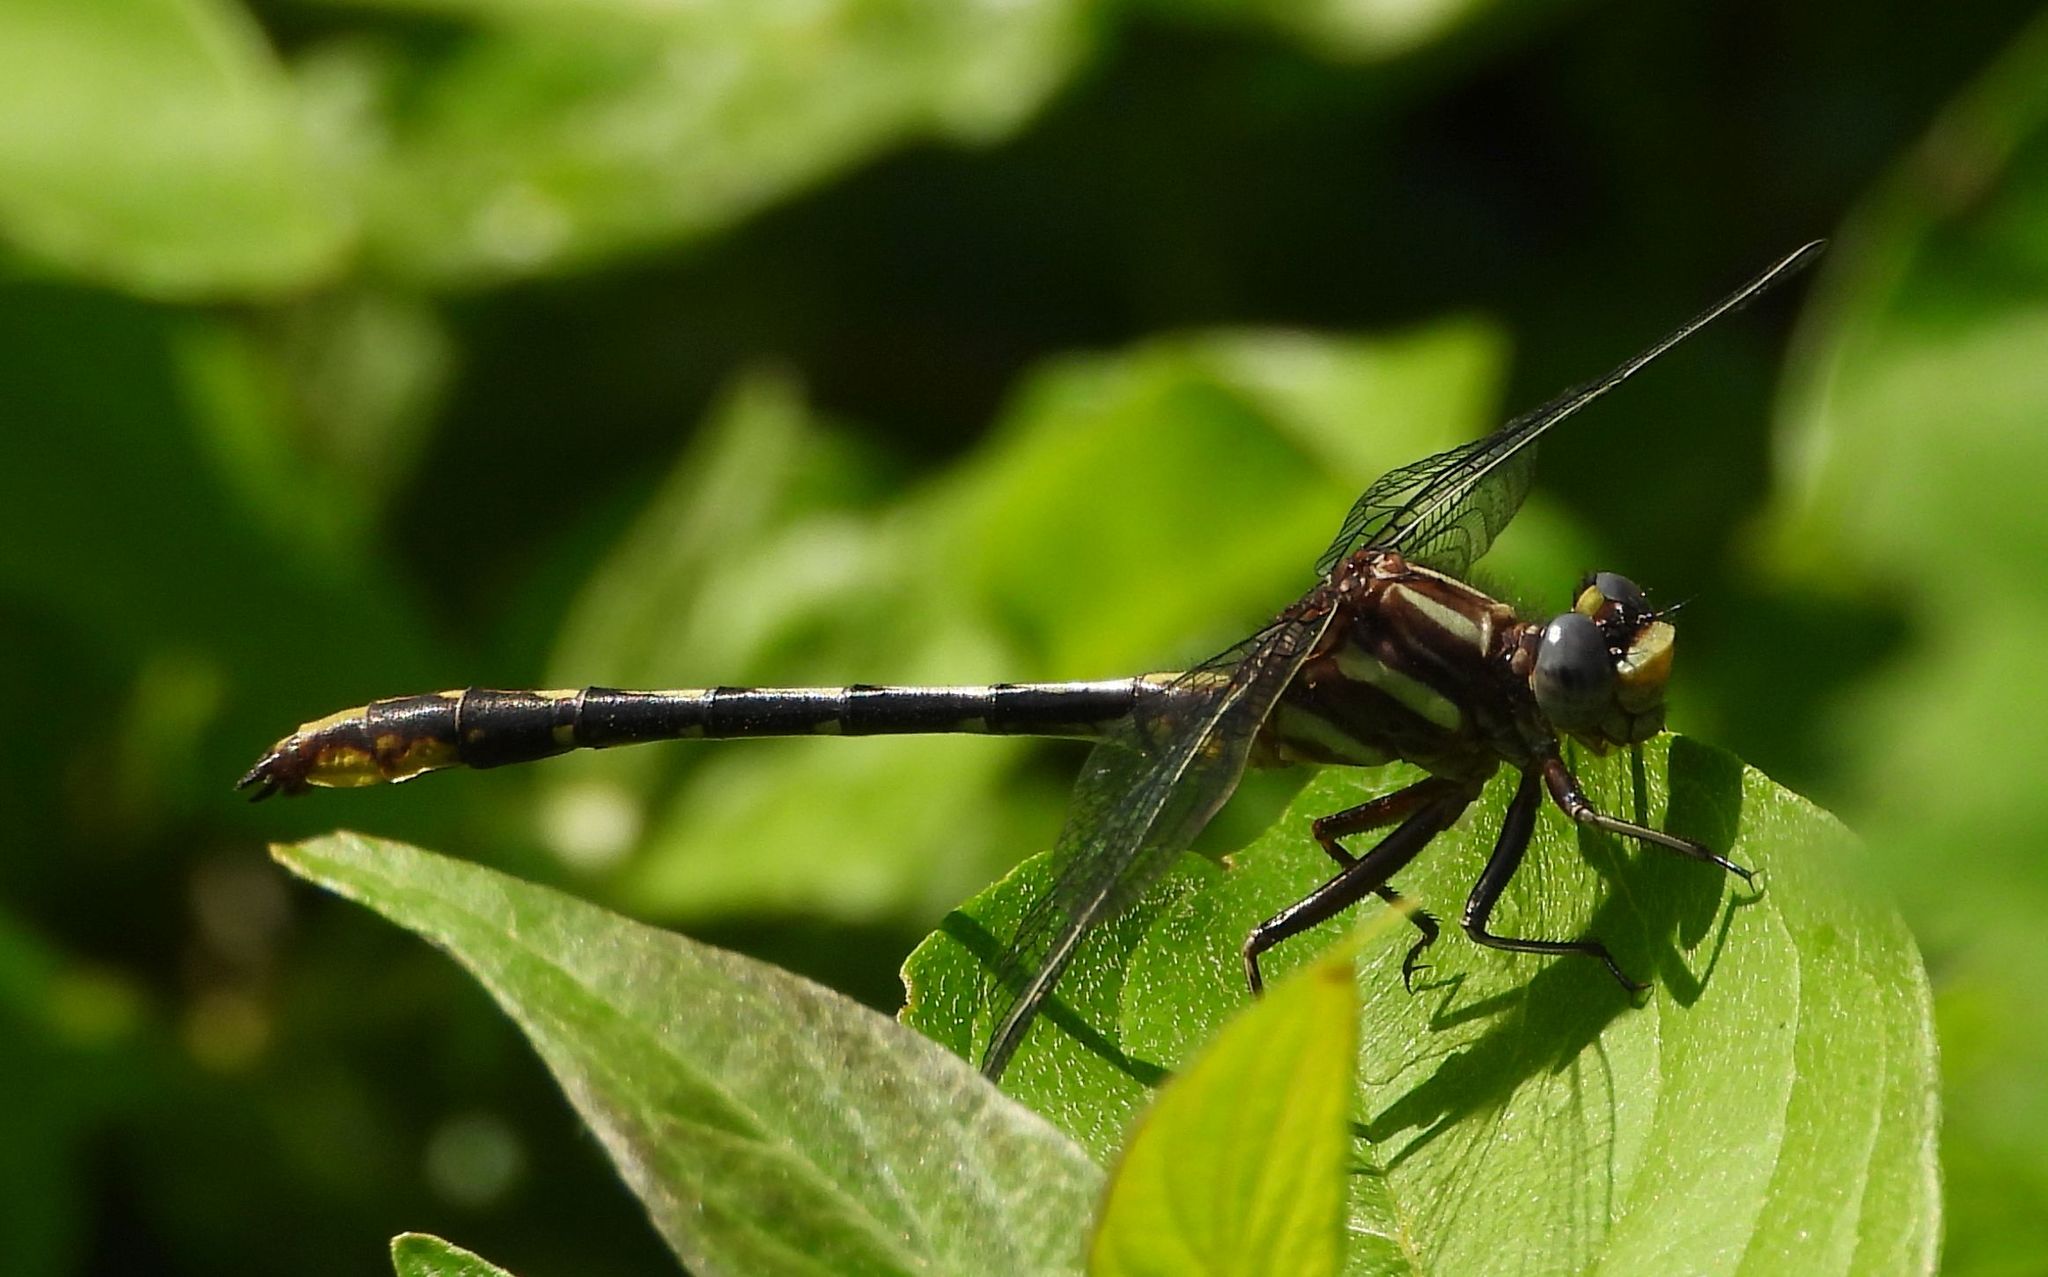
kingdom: Animalia
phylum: Arthropoda
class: Insecta
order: Odonata
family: Gomphidae
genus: Phanogomphus
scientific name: Phanogomphus exilis
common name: Lancet clubtail
